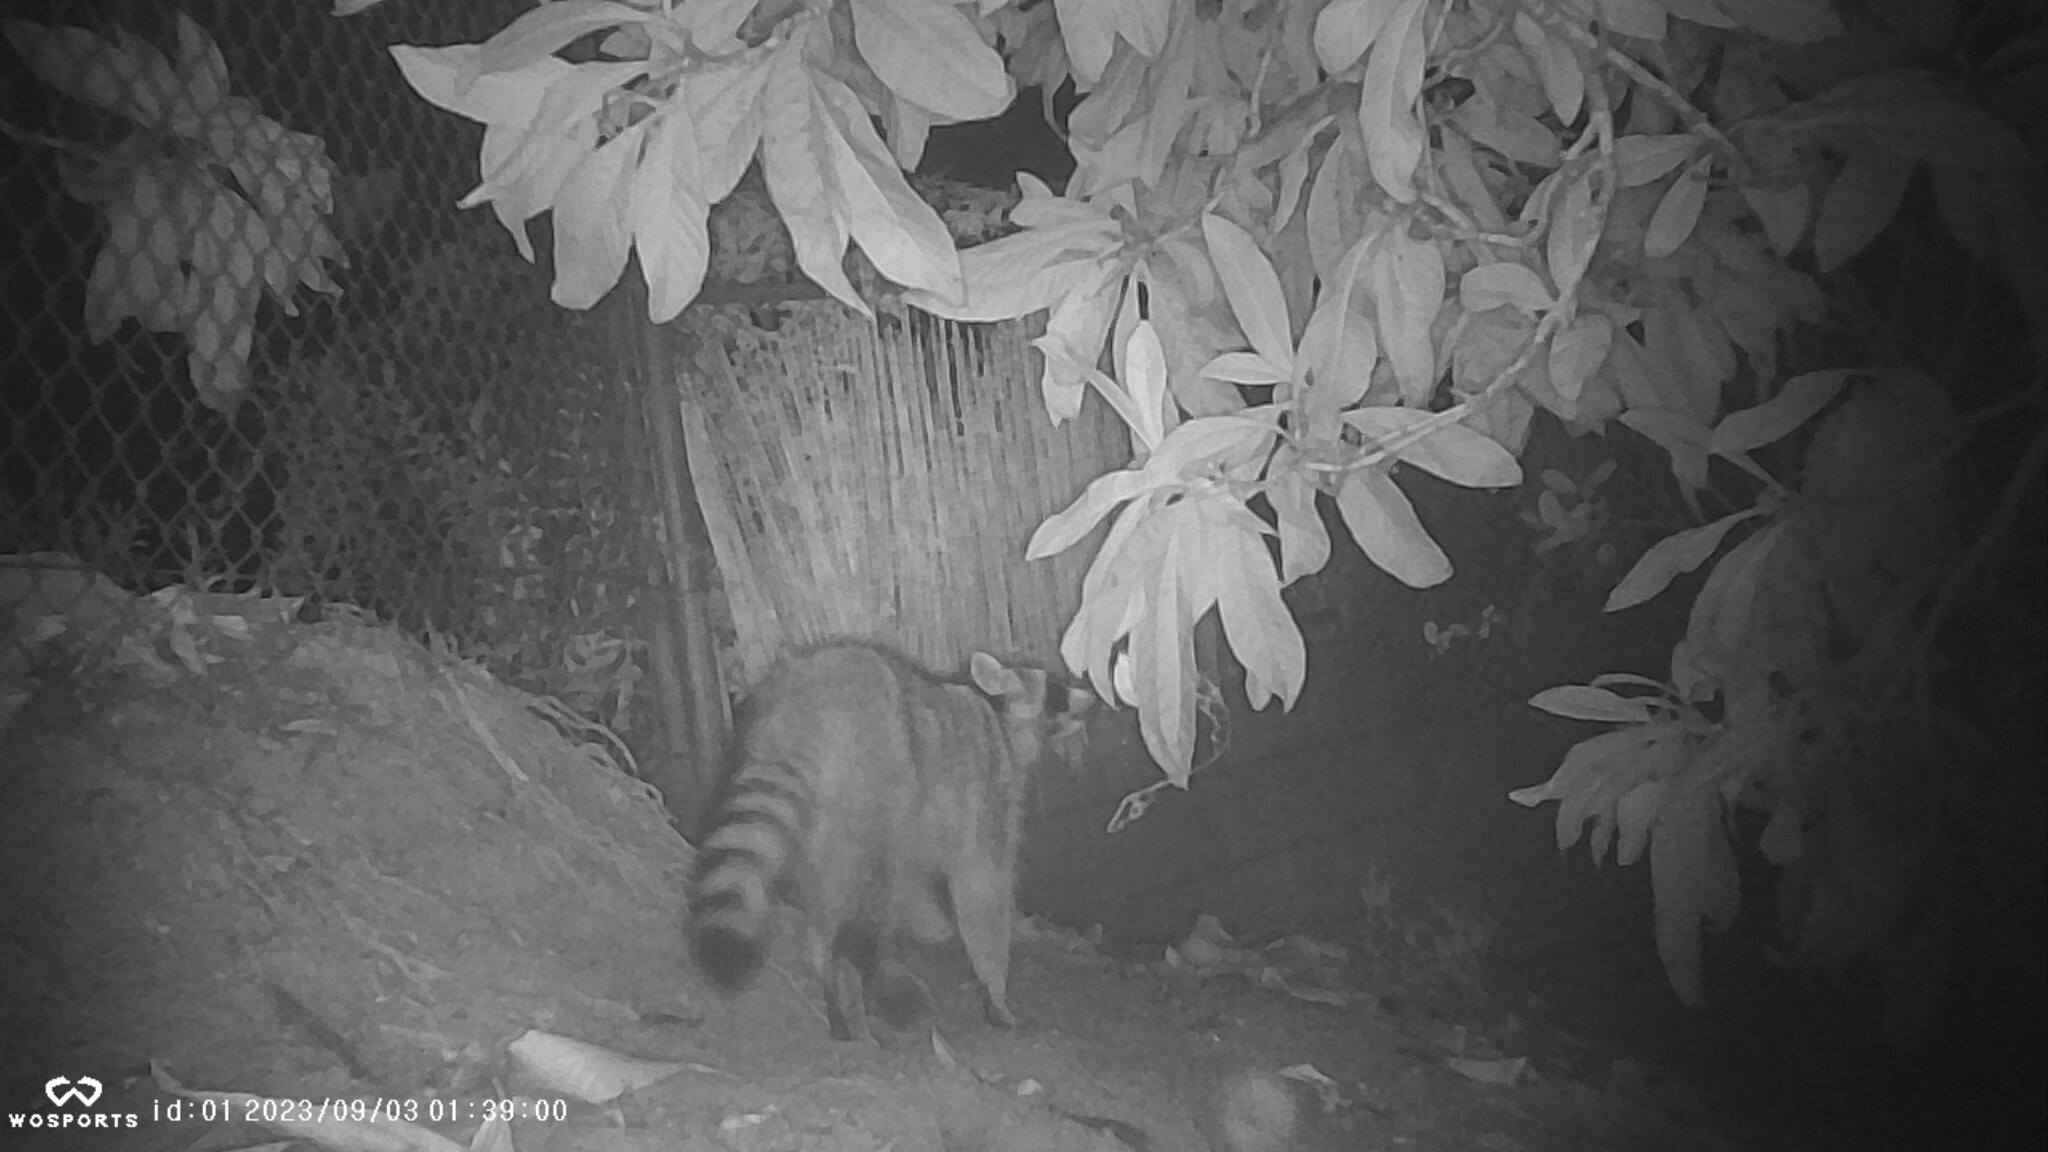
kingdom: Animalia
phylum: Chordata
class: Mammalia
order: Carnivora
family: Procyonidae
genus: Procyon
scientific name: Procyon lotor
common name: Raccoon
